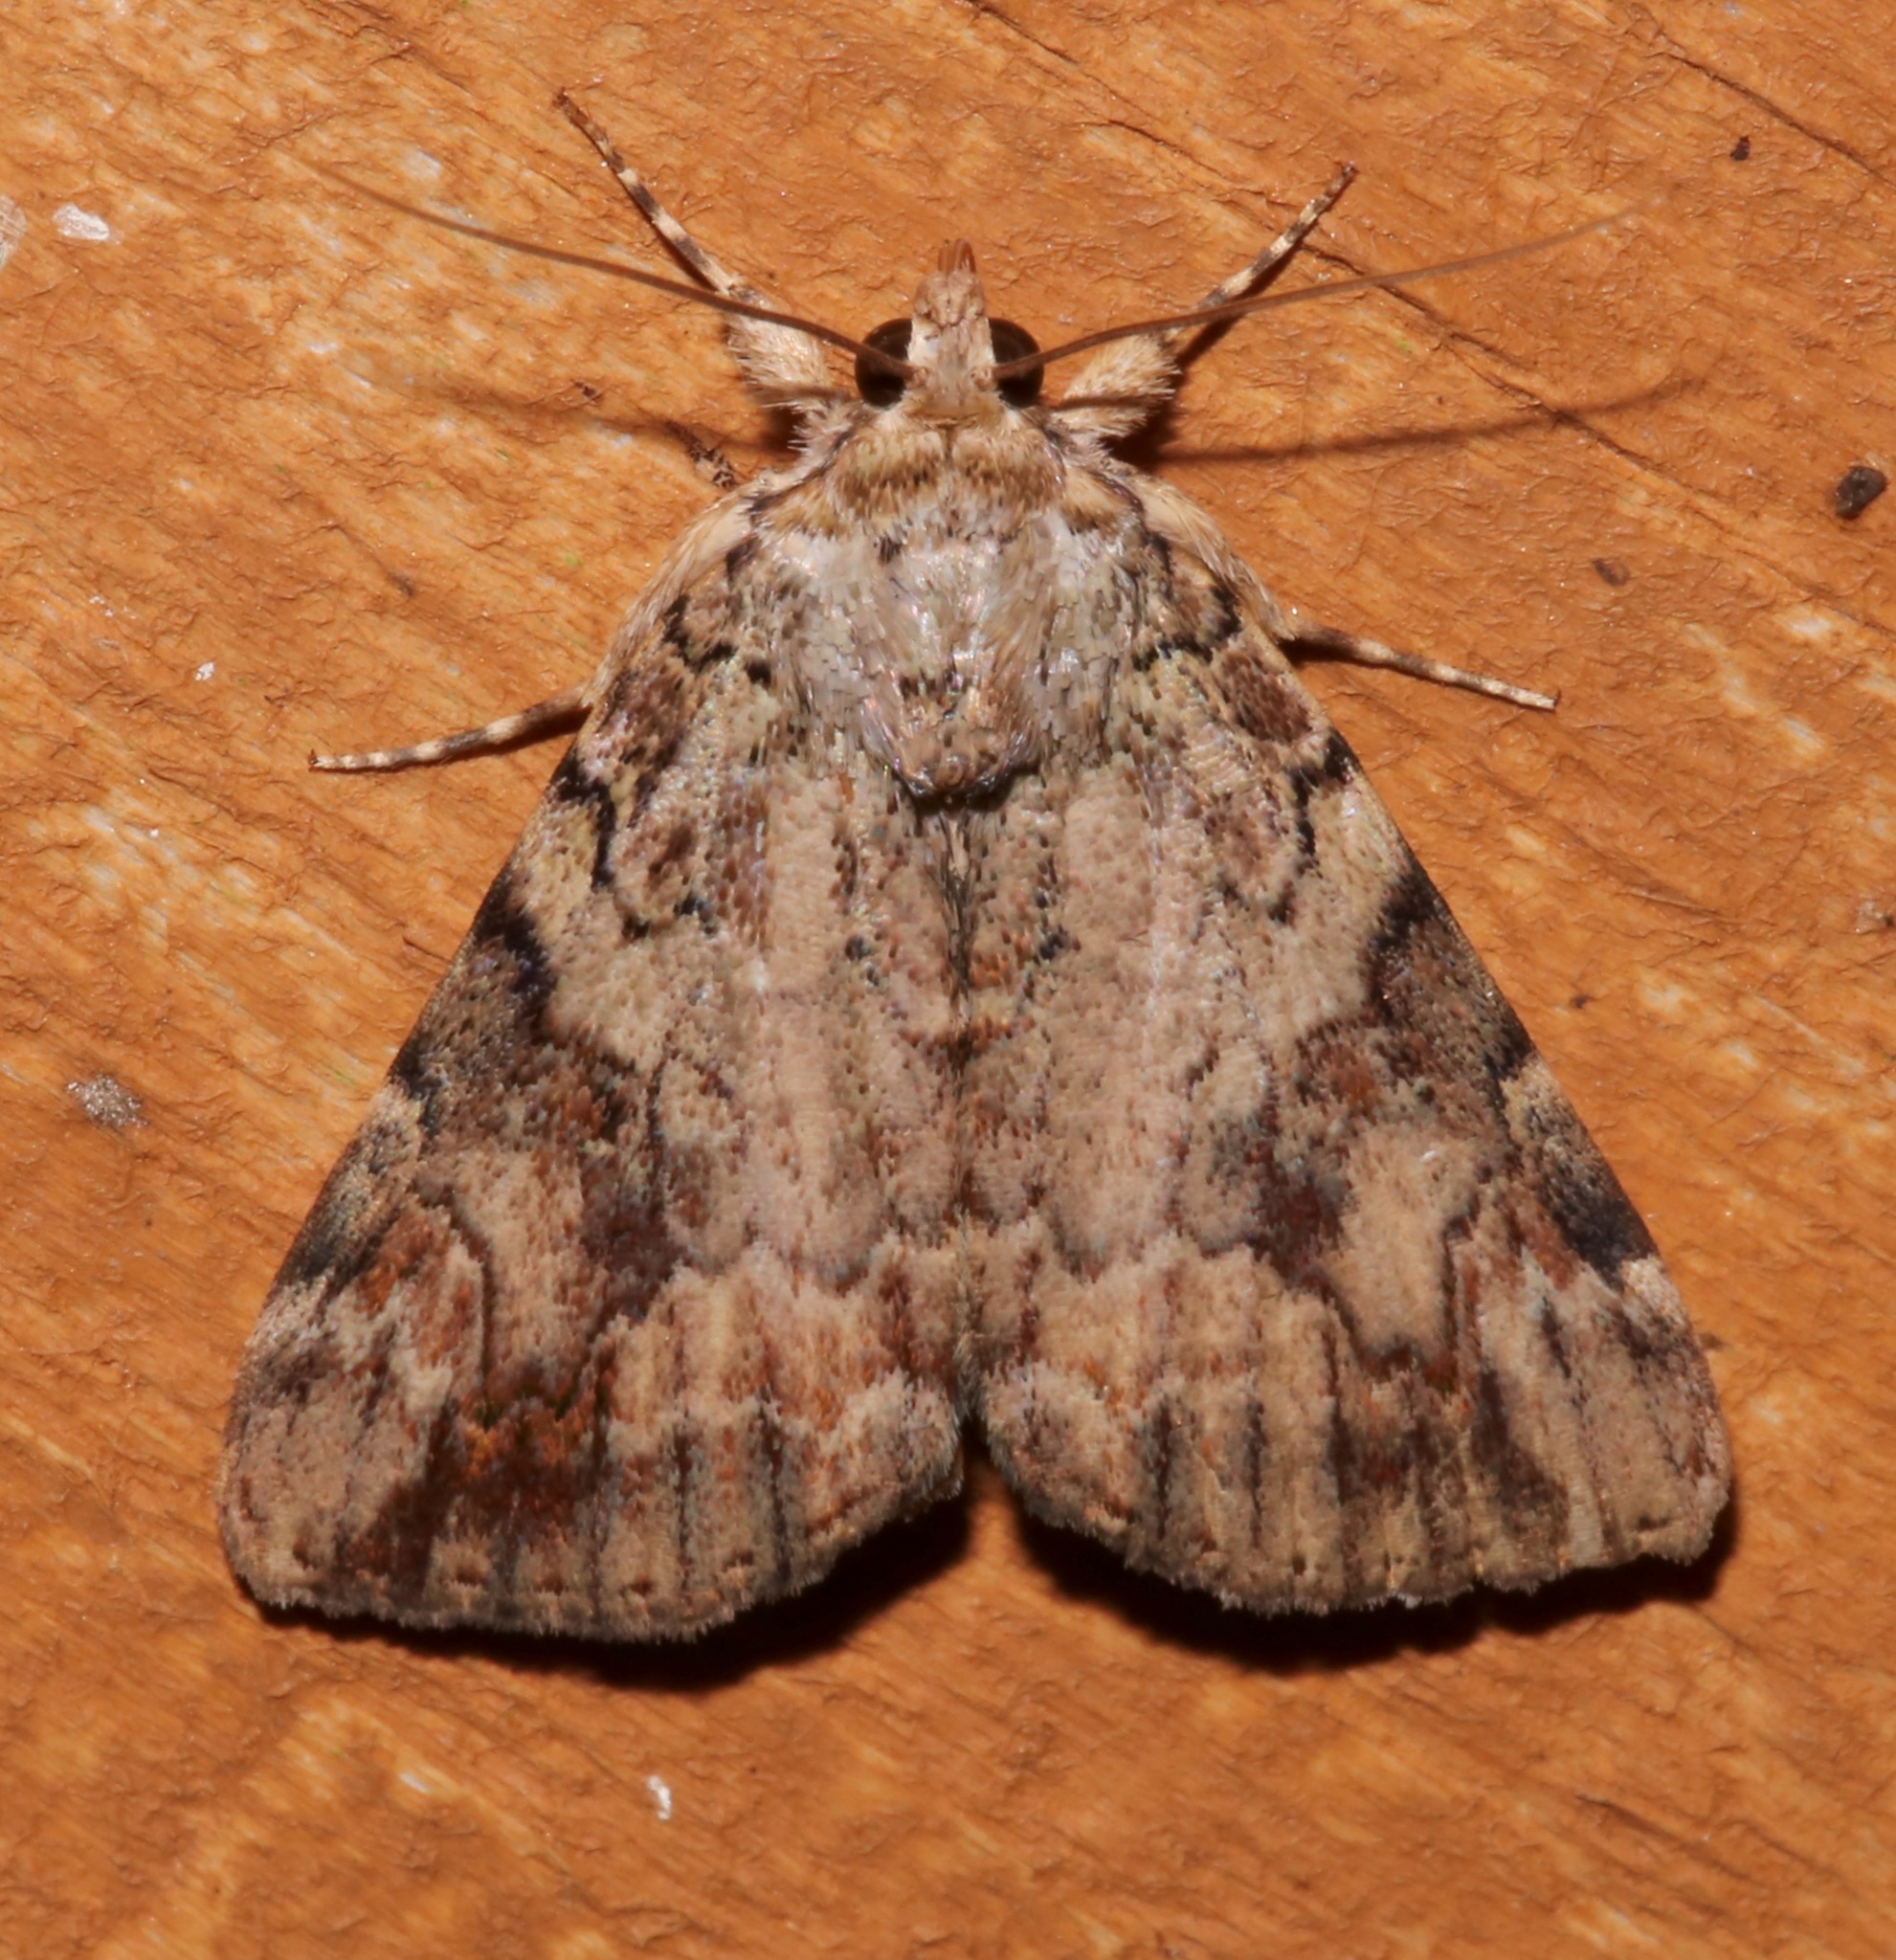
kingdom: Animalia
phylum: Arthropoda
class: Insecta
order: Lepidoptera
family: Erebidae
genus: Catocala
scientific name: Catocala micronympha
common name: Little nymph underwing
